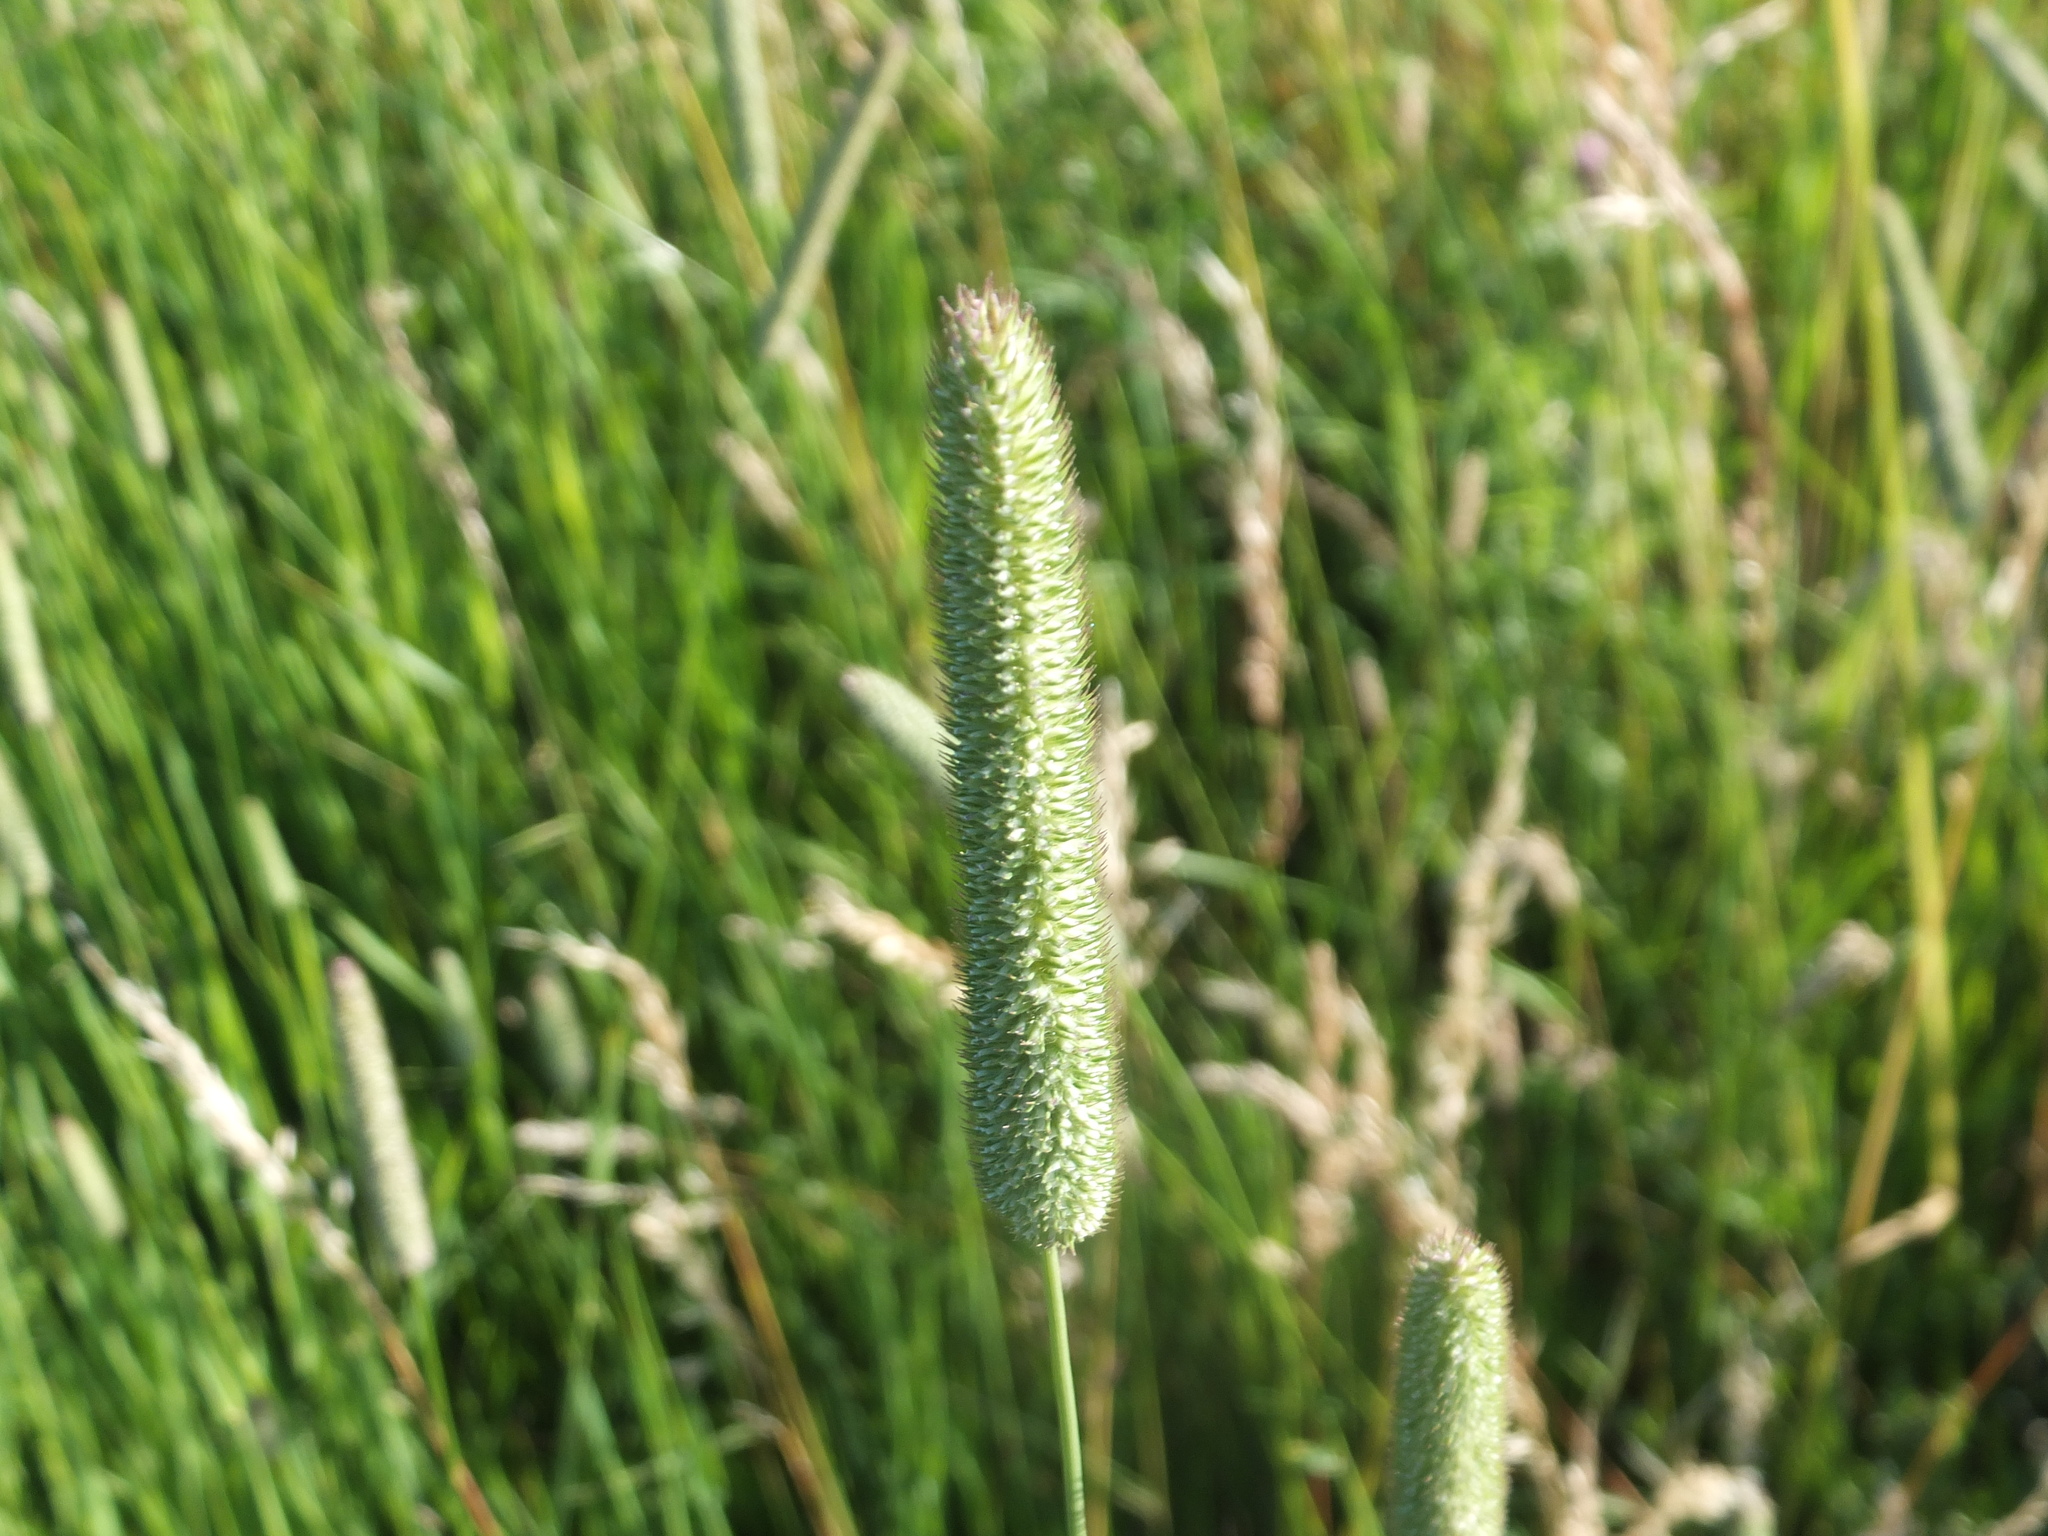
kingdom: Plantae
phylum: Tracheophyta
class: Liliopsida
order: Poales
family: Poaceae
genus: Phleum
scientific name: Phleum pratense
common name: Timothy grass
